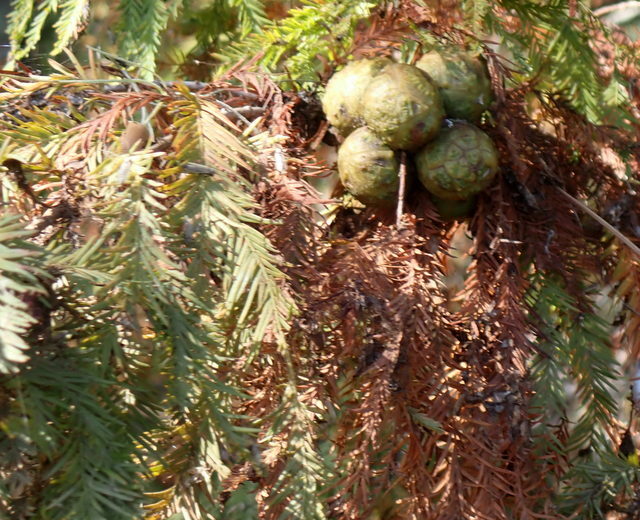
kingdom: Plantae
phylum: Tracheophyta
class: Pinopsida
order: Pinales
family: Cupressaceae
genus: Taxodium
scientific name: Taxodium distichum
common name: Bald cypress
